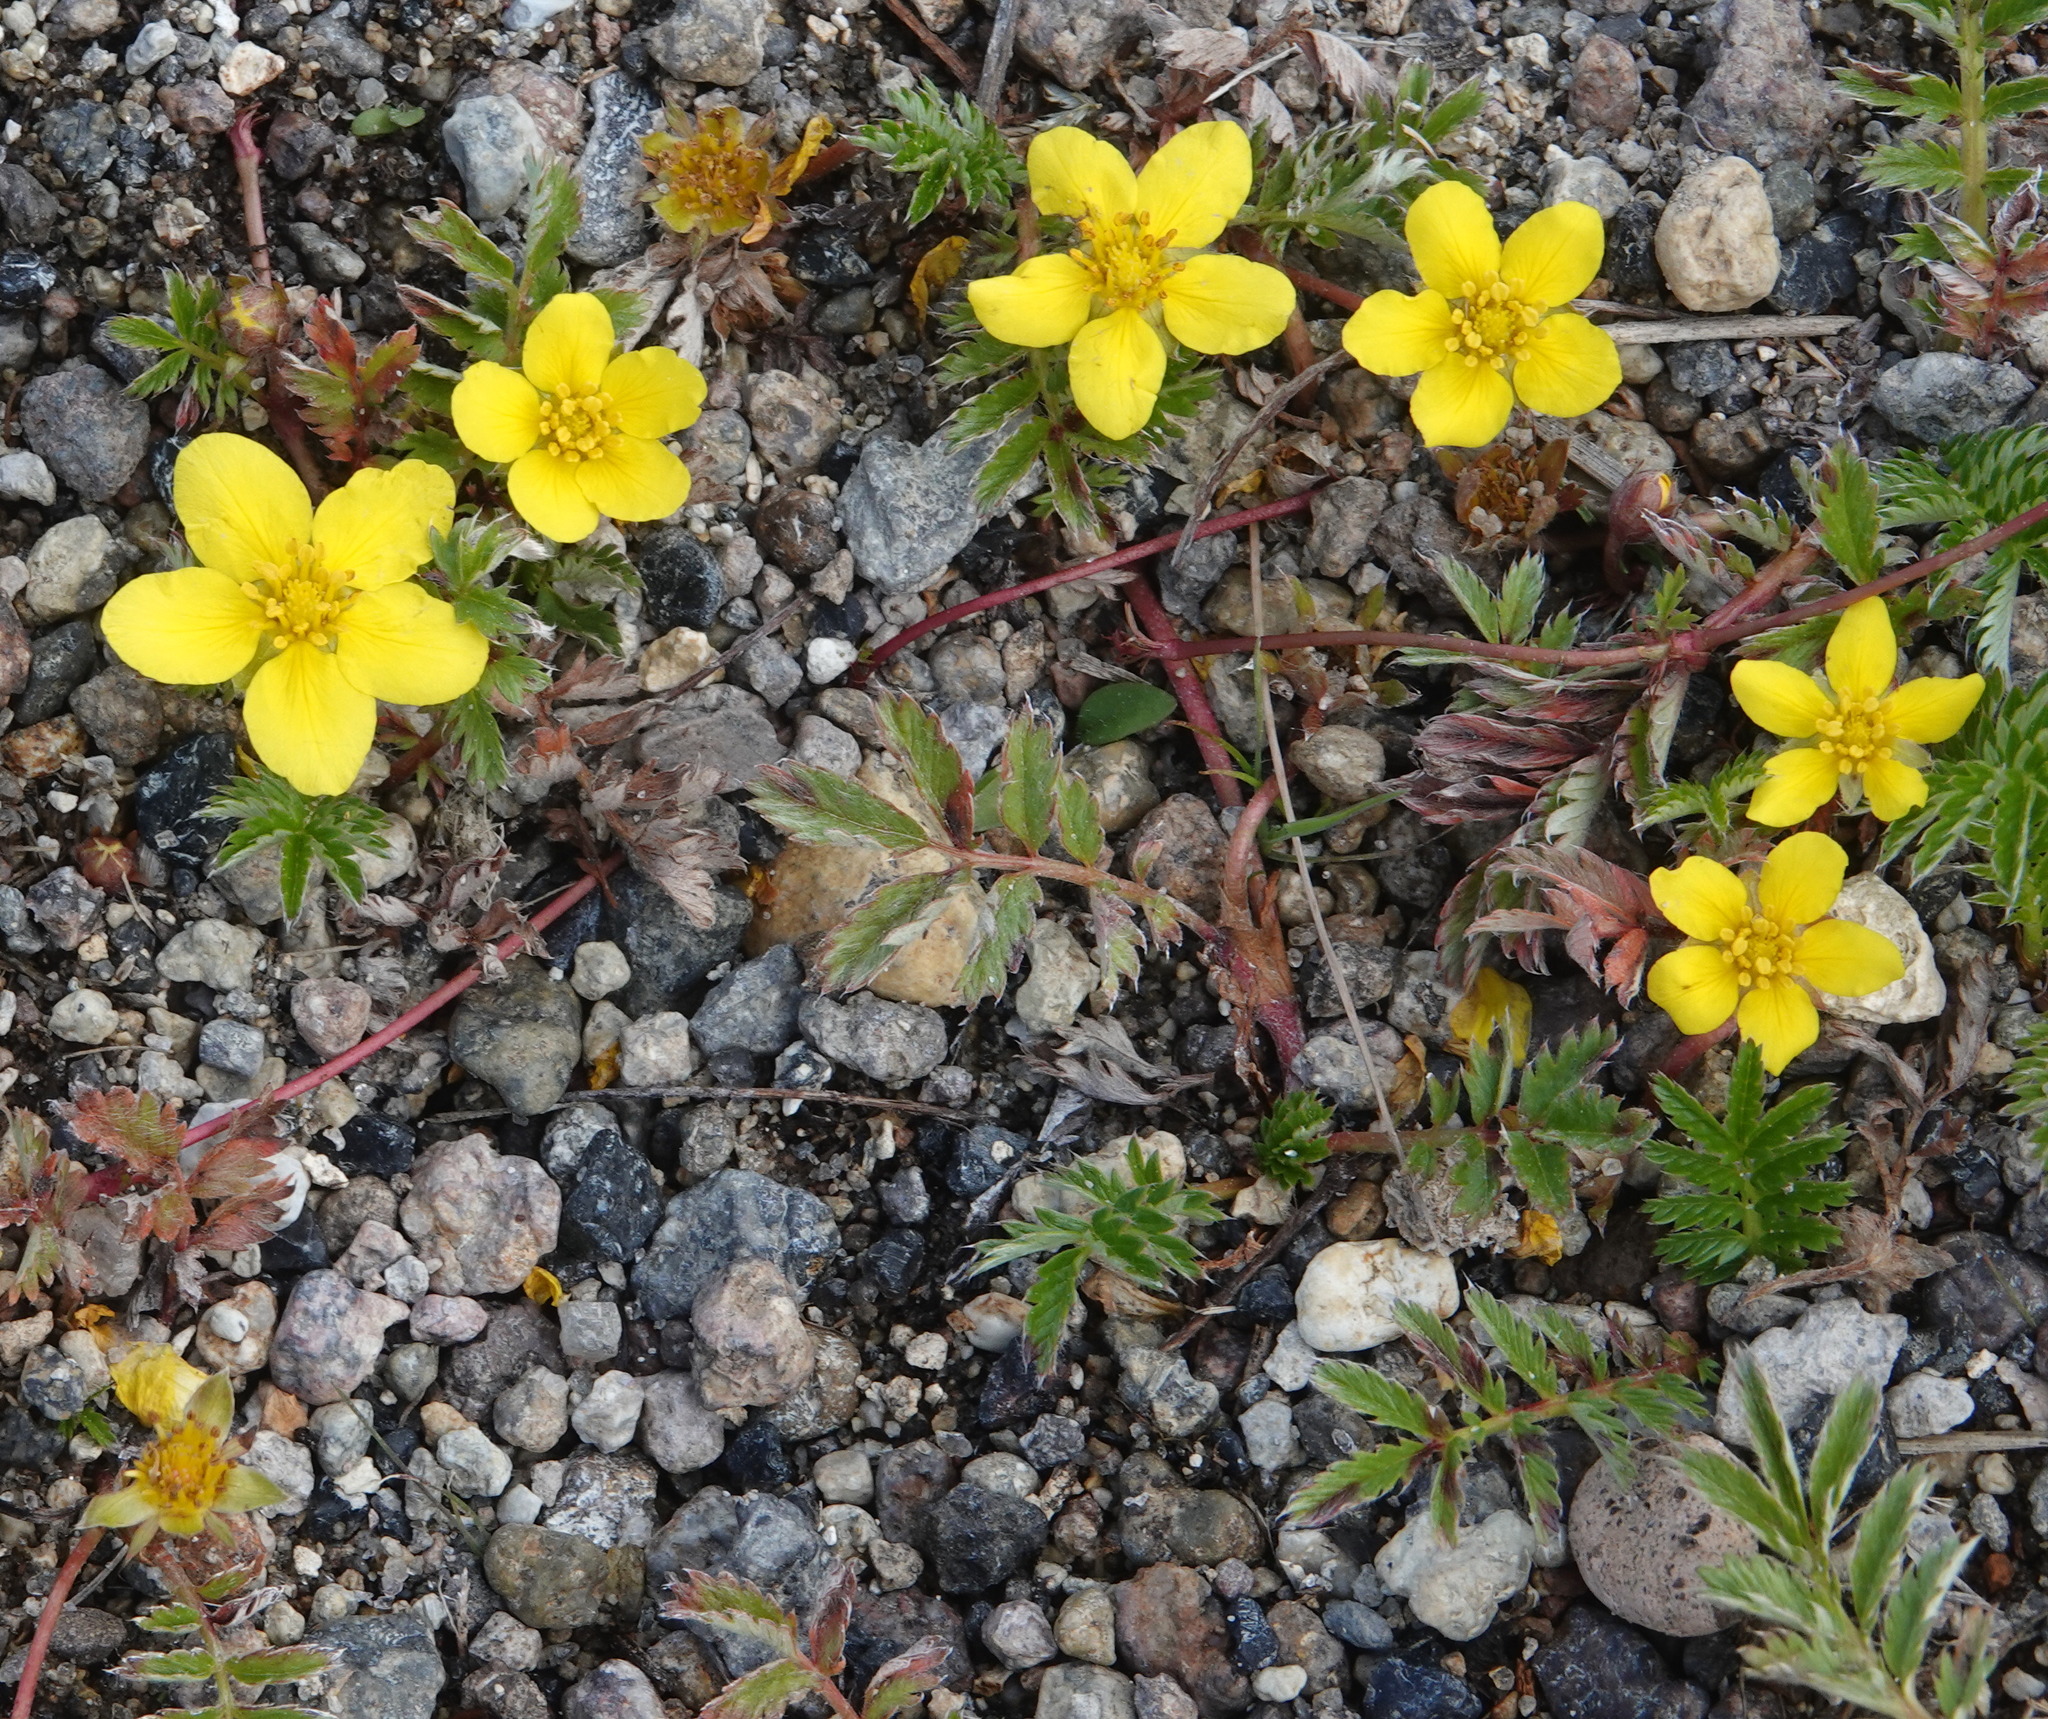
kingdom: Plantae
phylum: Tracheophyta
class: Magnoliopsida
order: Rosales
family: Rosaceae
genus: Argentina
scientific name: Argentina anserina
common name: Common silverweed
